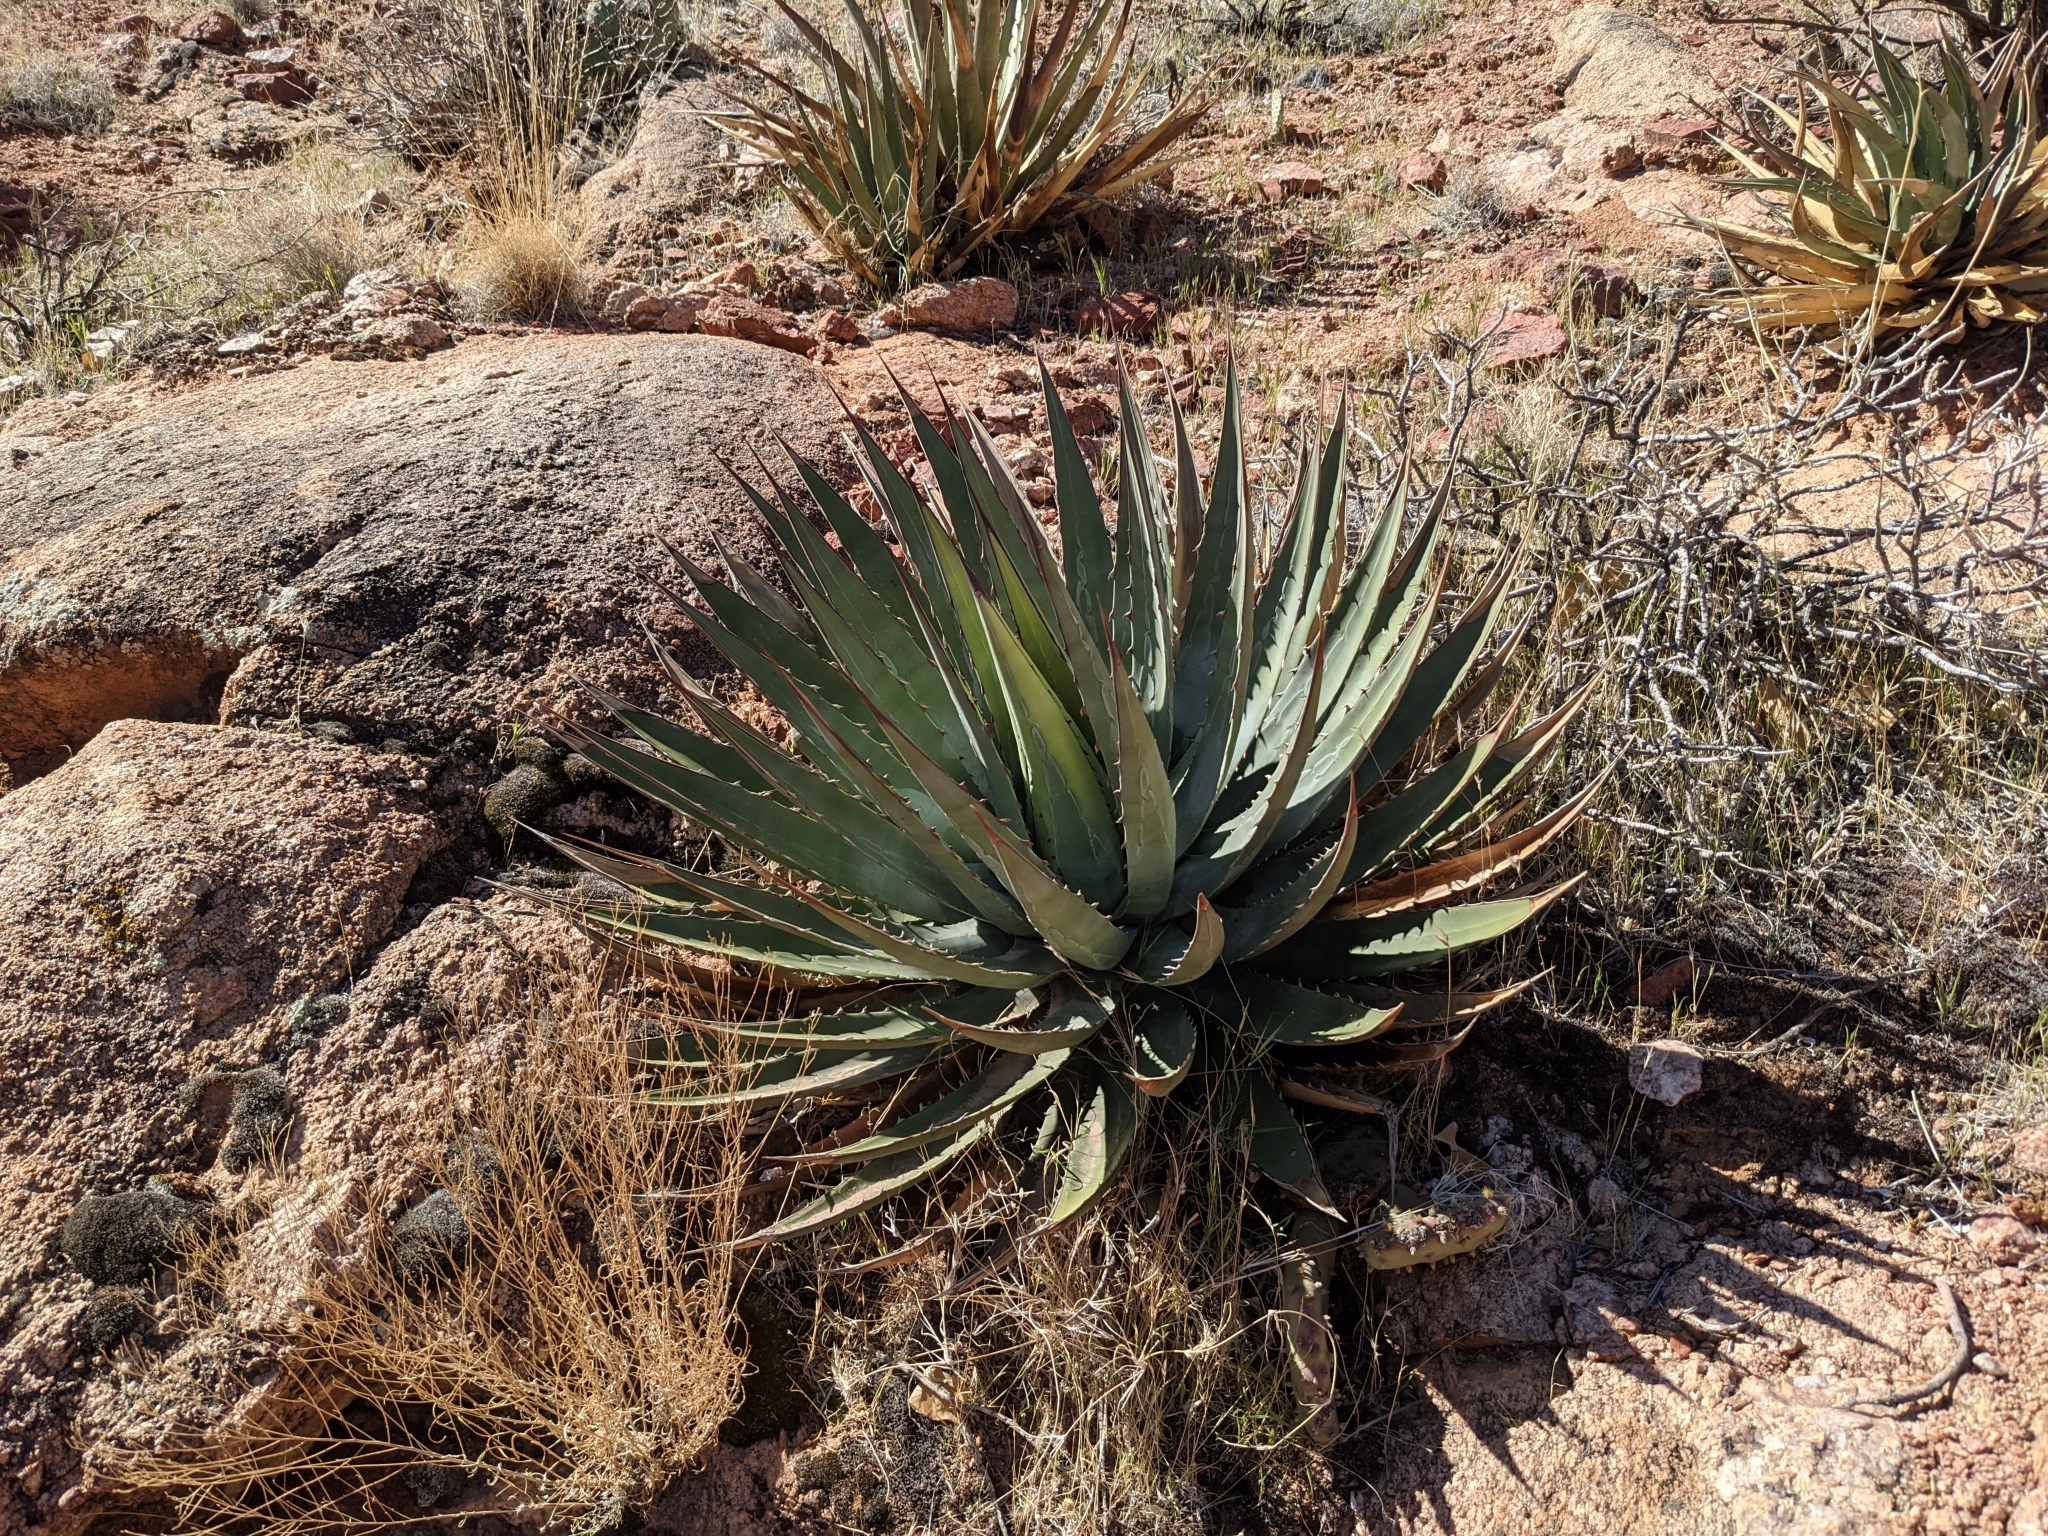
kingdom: Plantae
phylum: Tracheophyta
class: Liliopsida
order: Asparagales
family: Asparagaceae
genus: Agave
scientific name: Agave utahensis
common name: Utah agave
